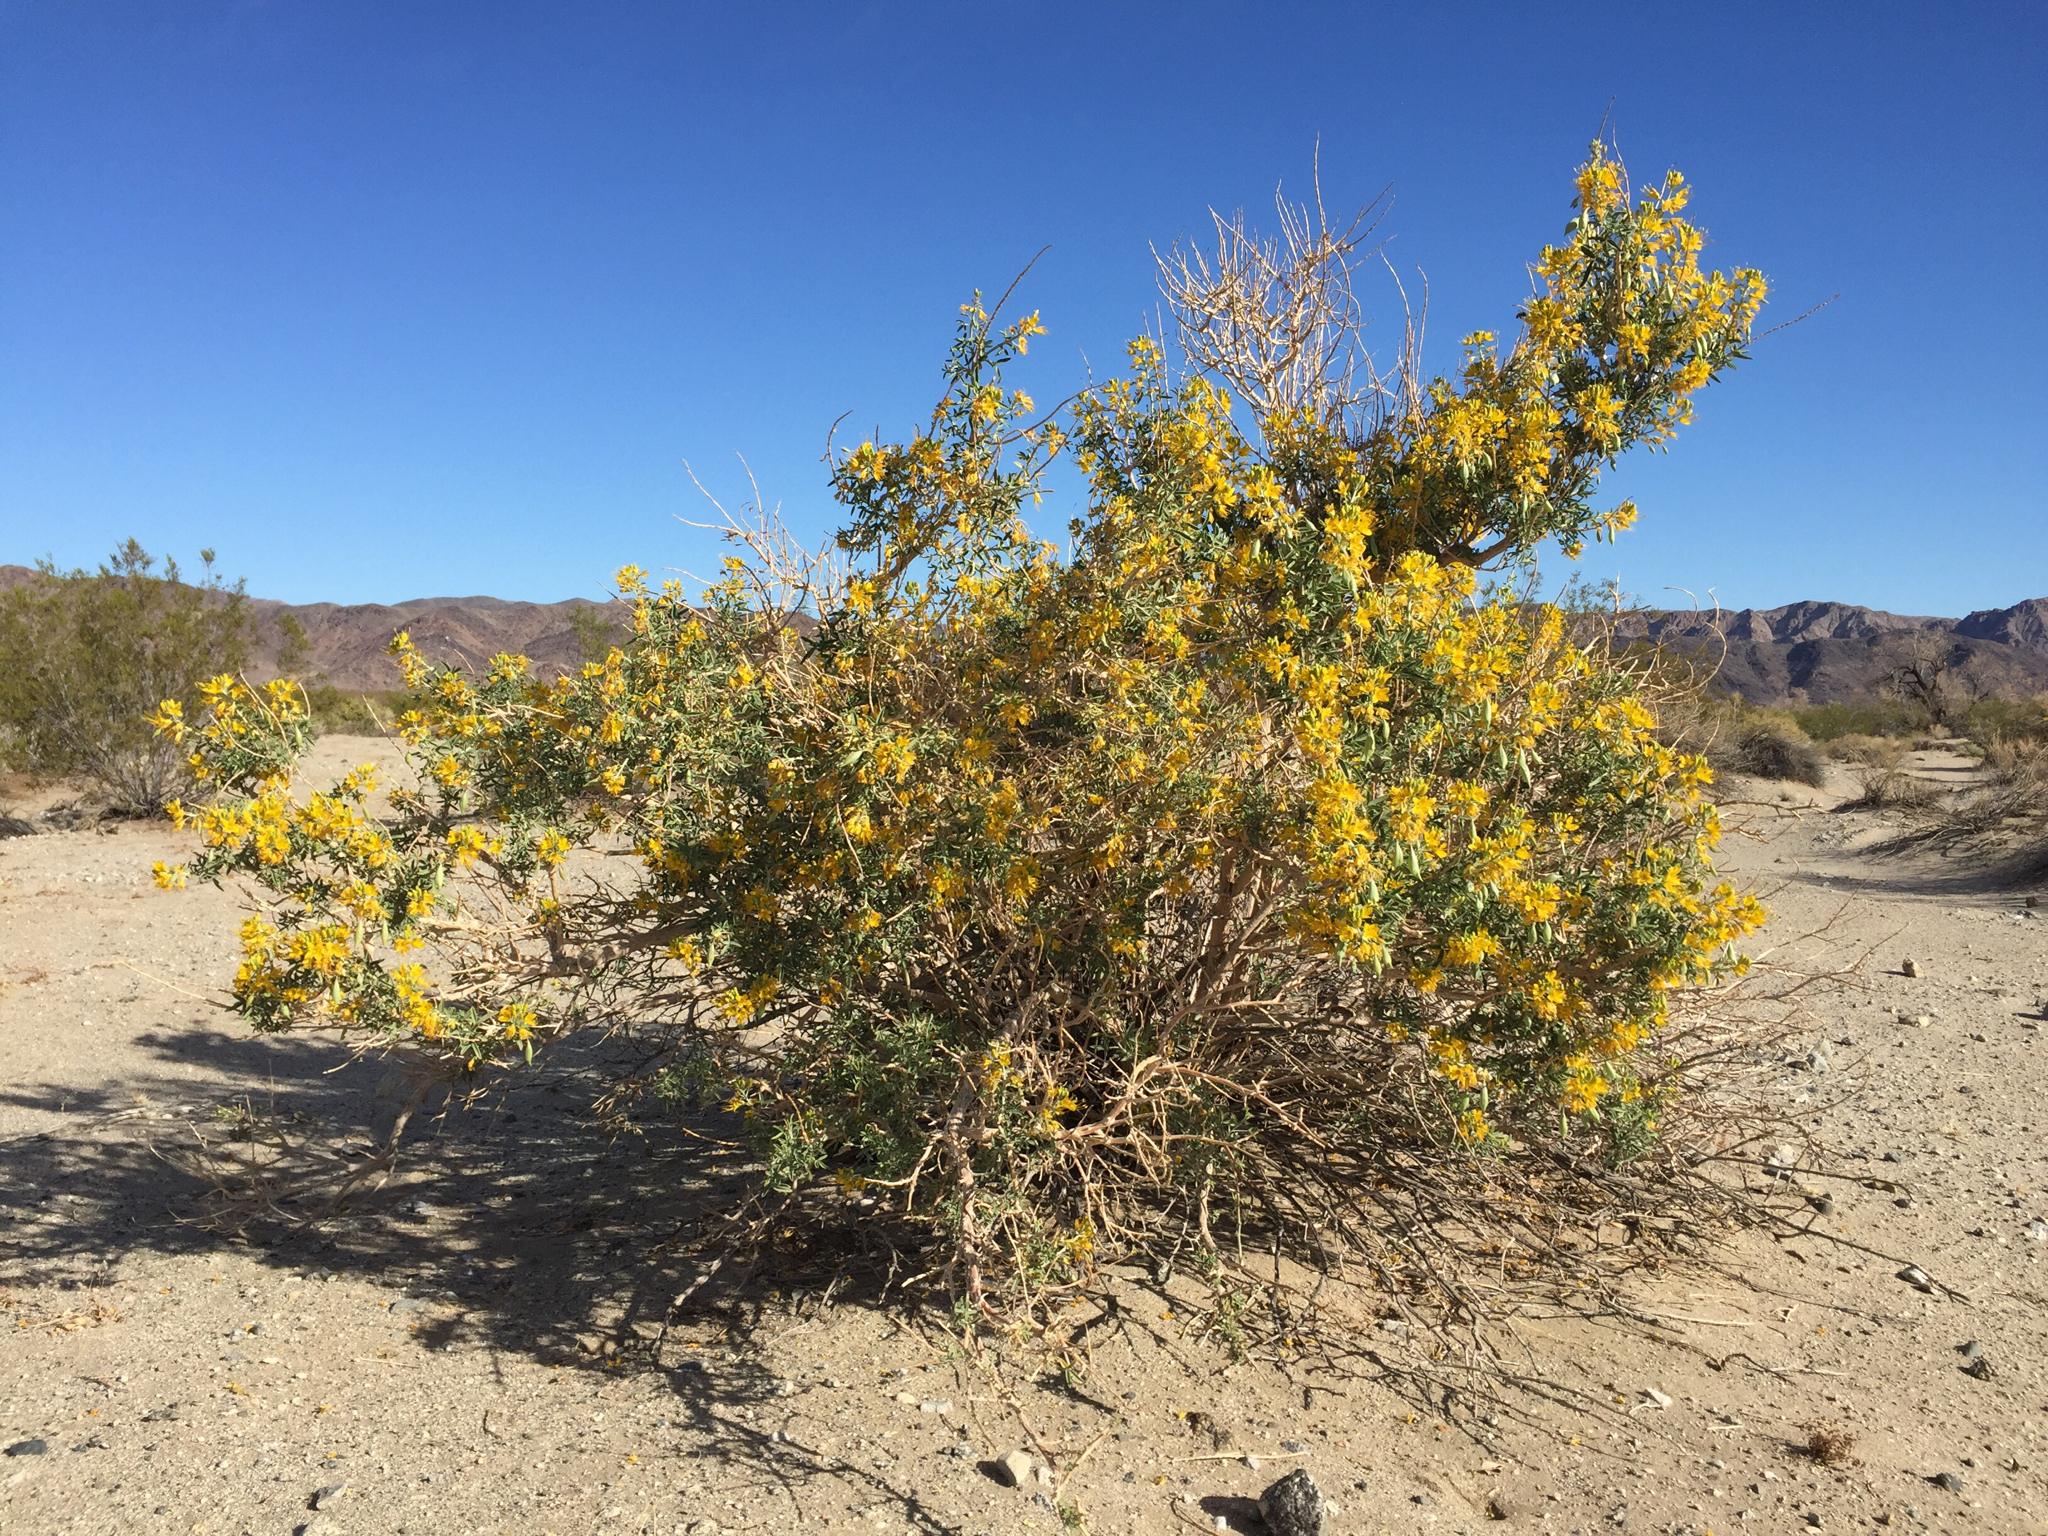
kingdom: Plantae
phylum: Tracheophyta
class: Magnoliopsida
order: Brassicales
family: Cleomaceae
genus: Cleomella
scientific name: Cleomella arborea
